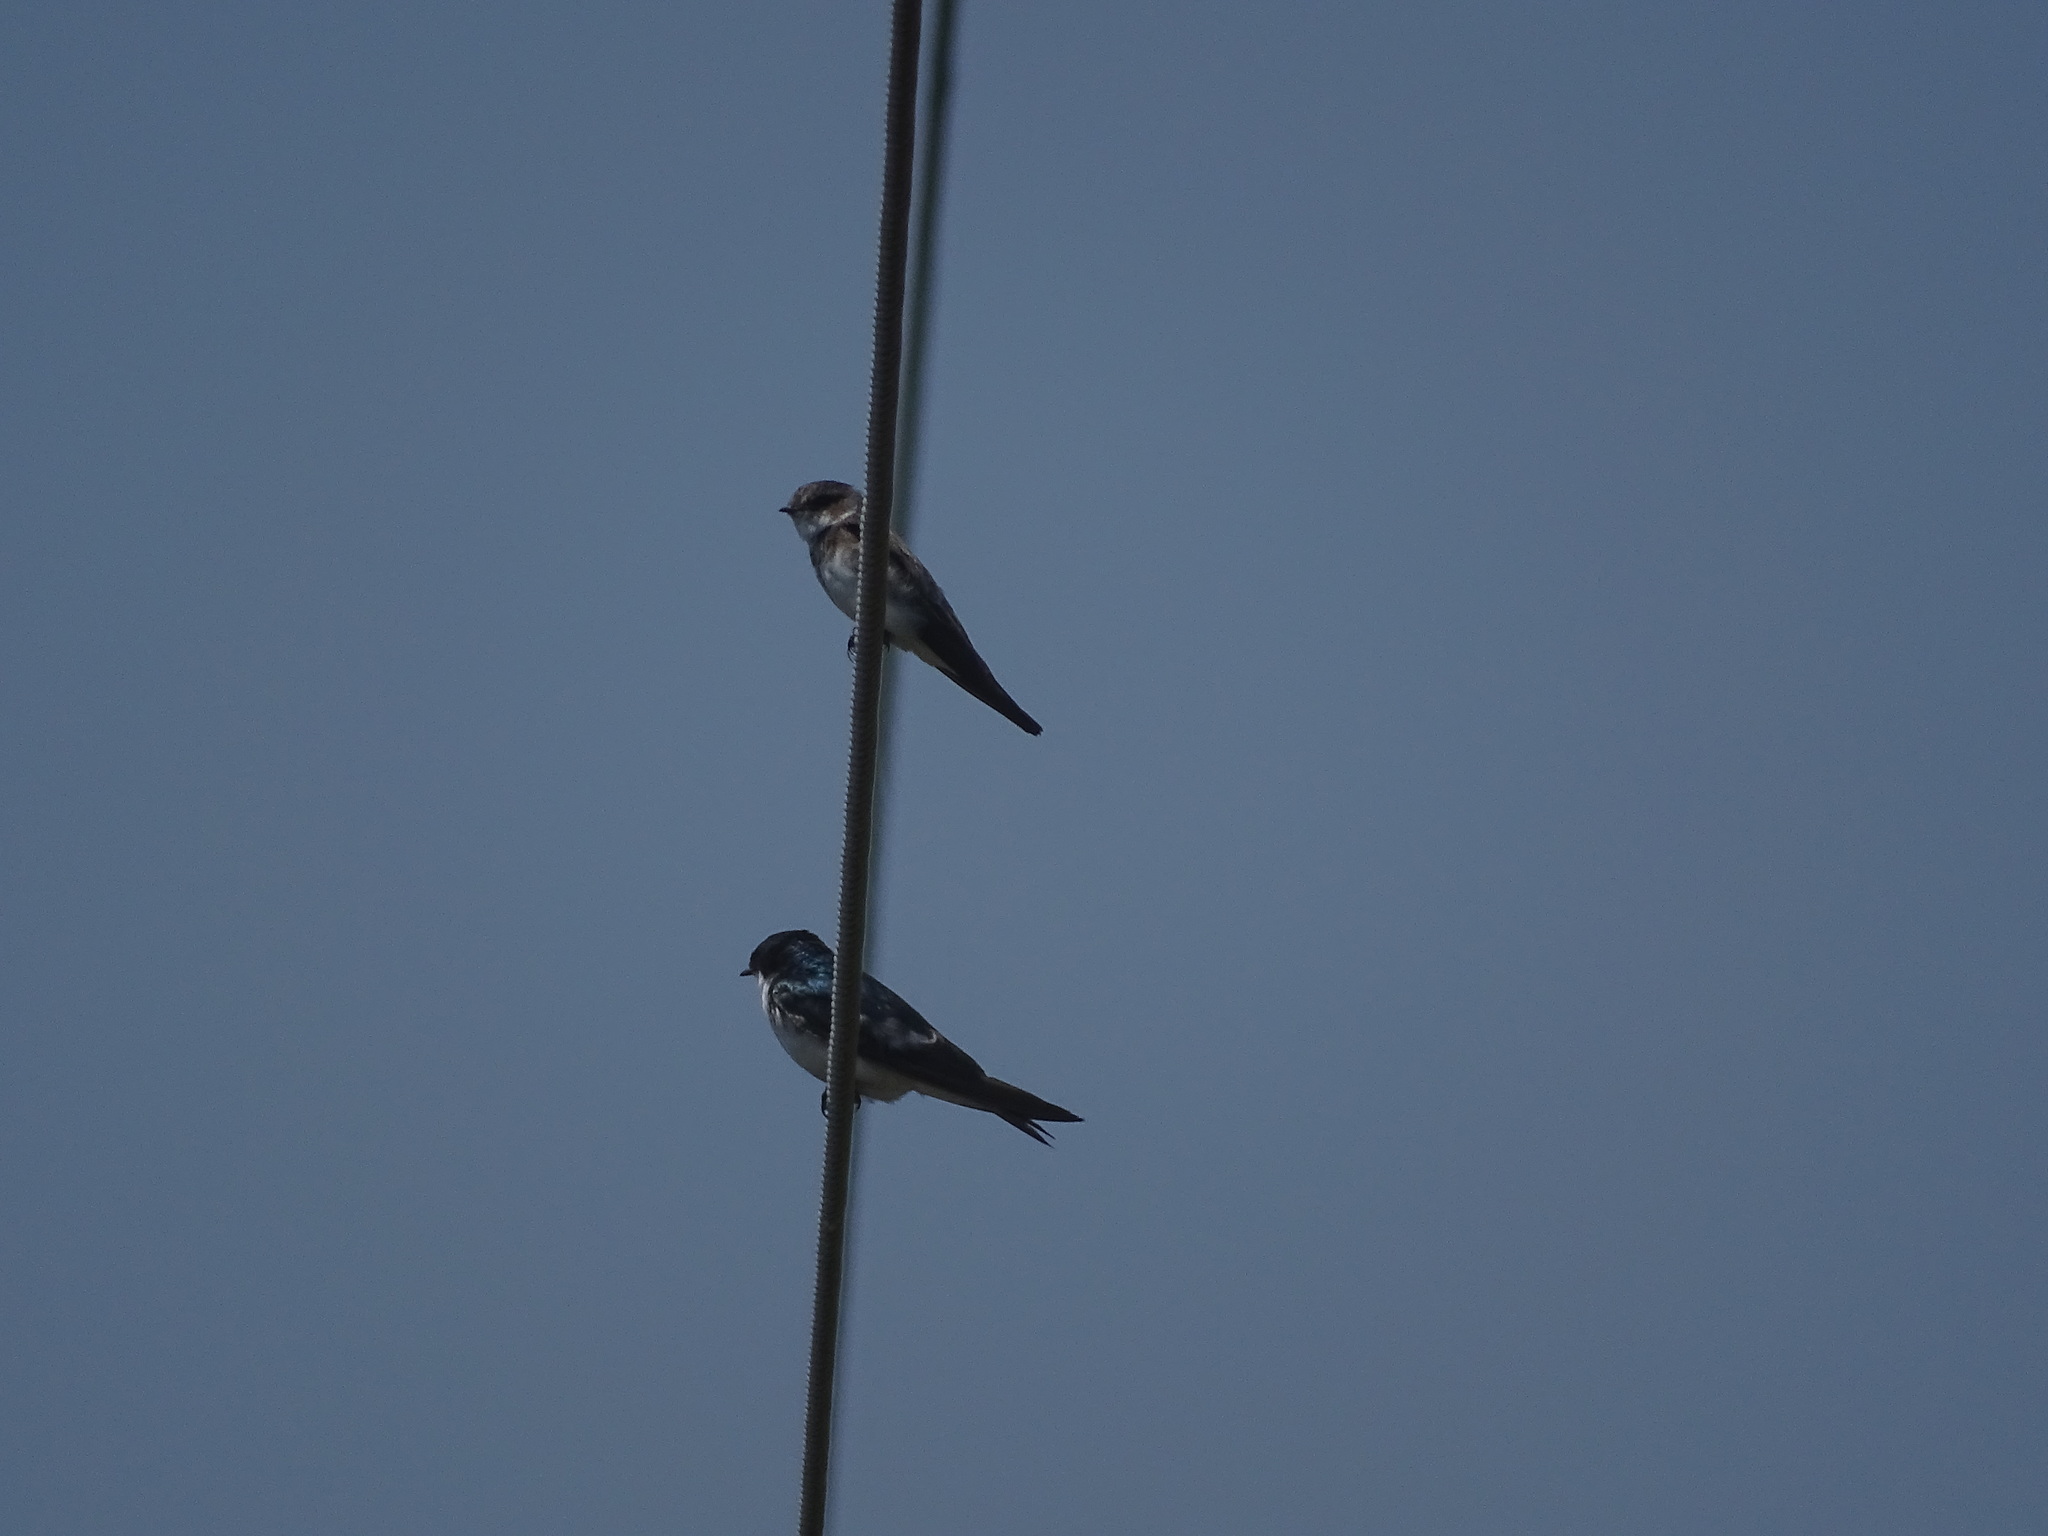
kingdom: Animalia
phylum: Chordata
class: Aves
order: Passeriformes
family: Hirundinidae
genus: Riparia
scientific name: Riparia riparia
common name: Sand martin
